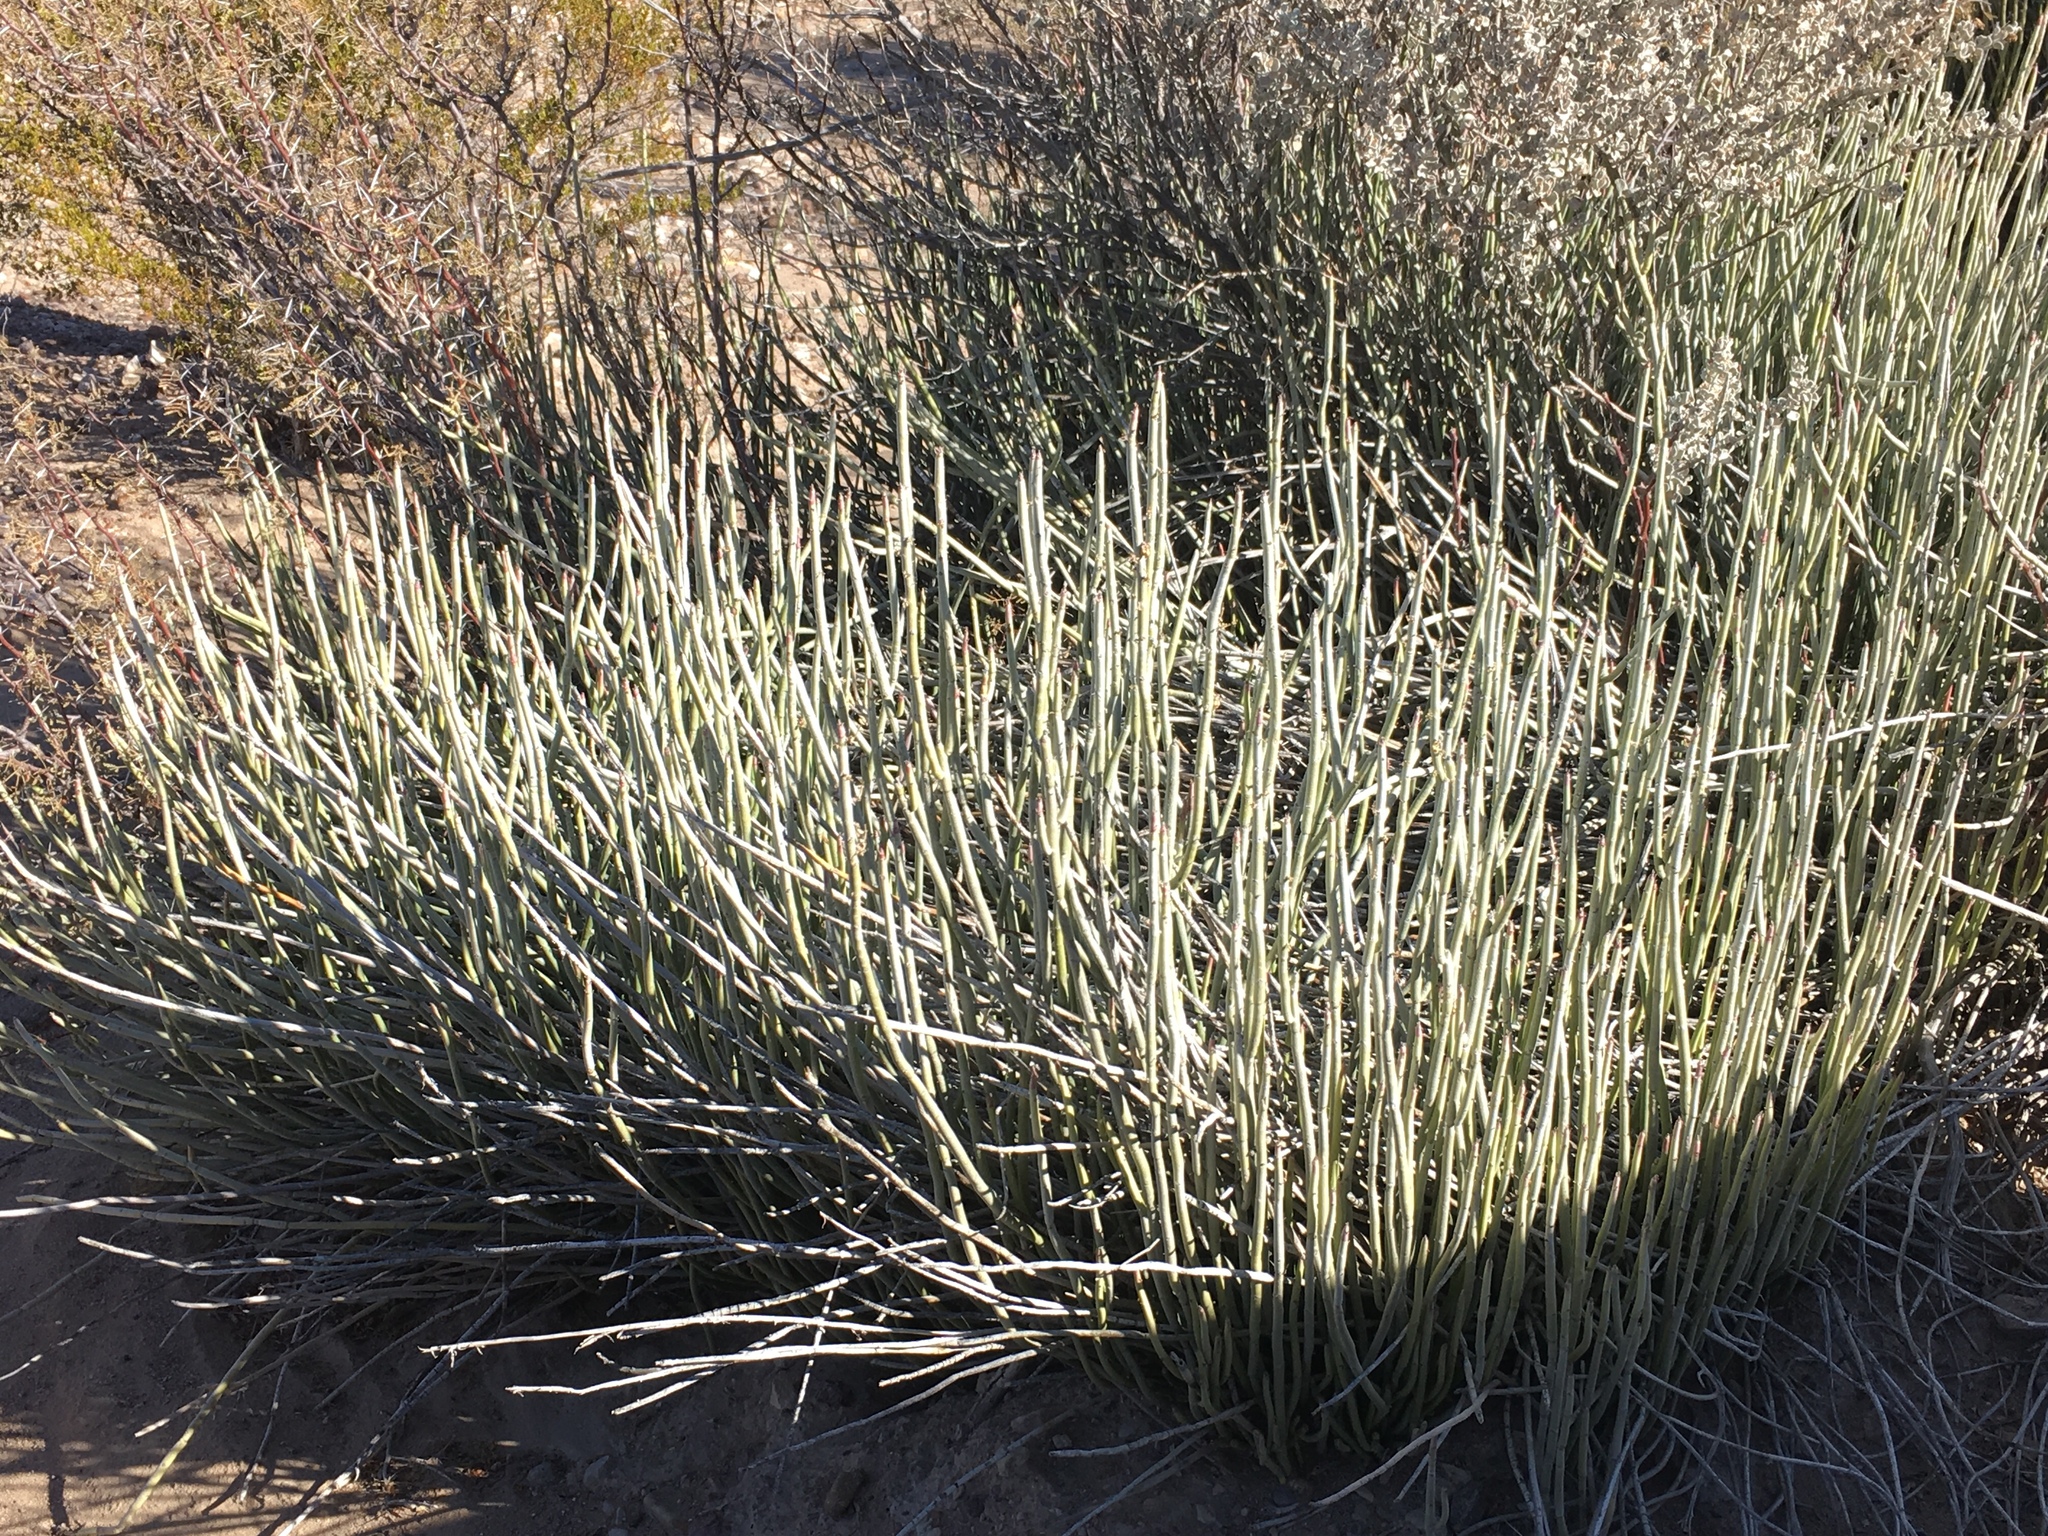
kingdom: Plantae
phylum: Tracheophyta
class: Magnoliopsida
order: Malpighiales
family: Euphorbiaceae
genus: Euphorbia
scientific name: Euphorbia antisyphilitica
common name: Candelilla
